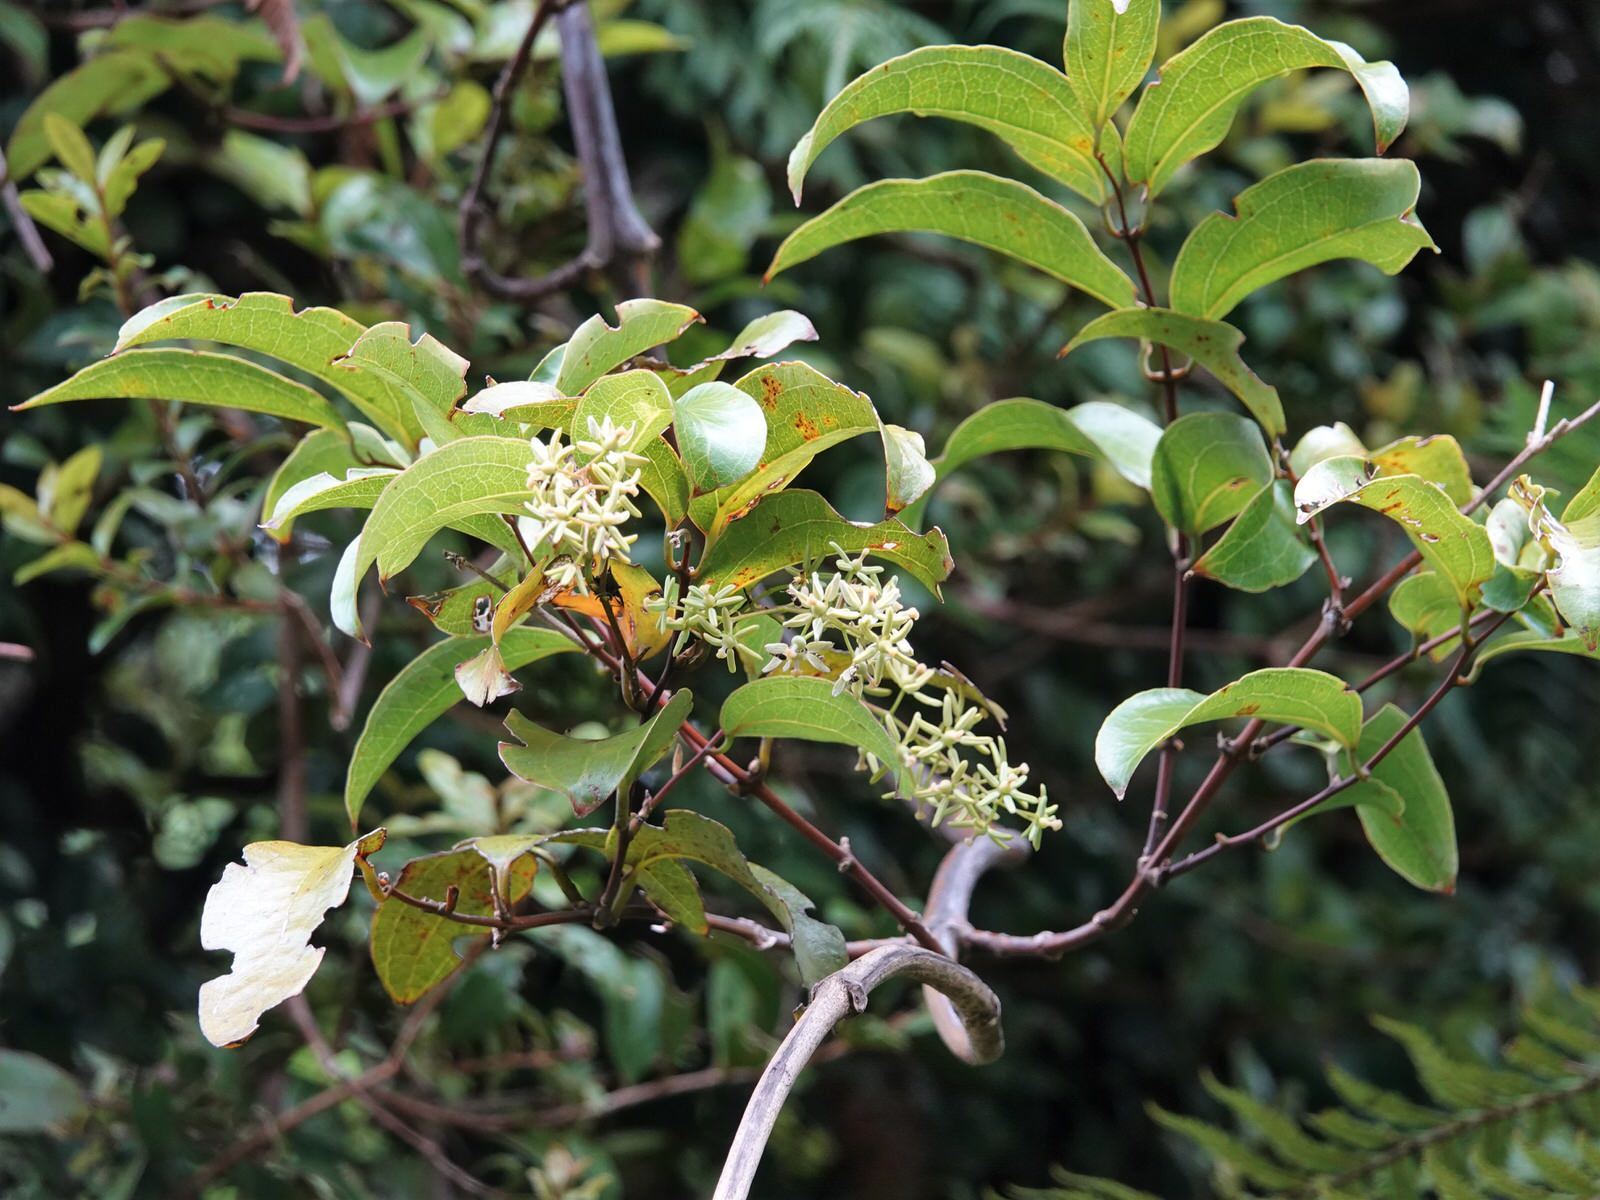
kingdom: Plantae
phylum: Tracheophyta
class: Liliopsida
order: Liliales
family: Ripogonaceae
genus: Ripogonum
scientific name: Ripogonum scandens
